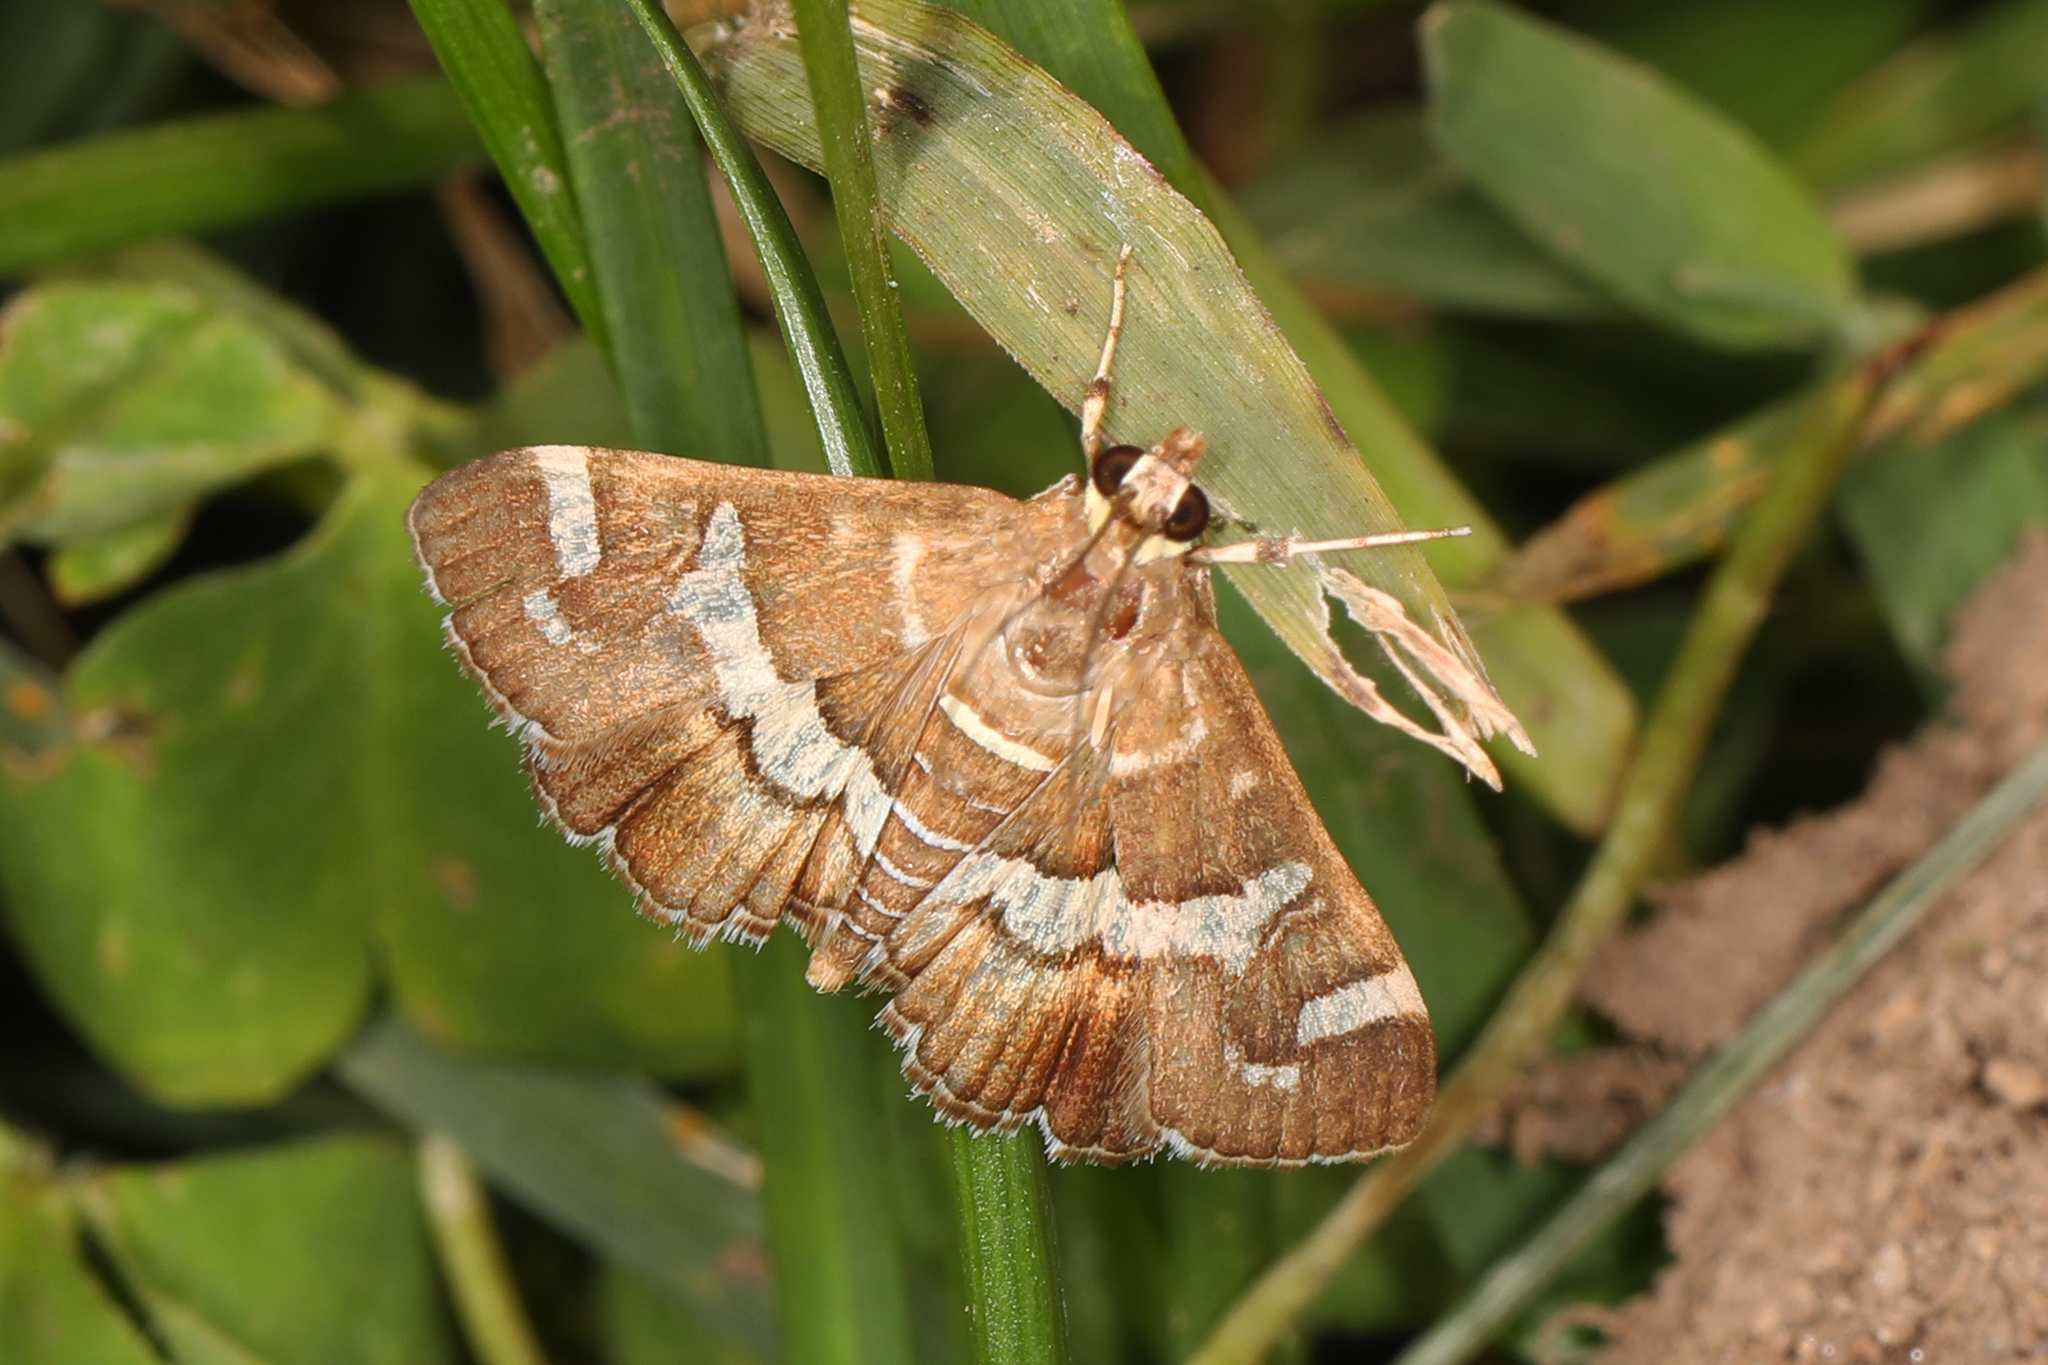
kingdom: Animalia
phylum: Arthropoda
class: Insecta
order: Lepidoptera
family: Crambidae
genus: Spoladea
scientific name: Spoladea recurvalis
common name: Beet webworm moth
